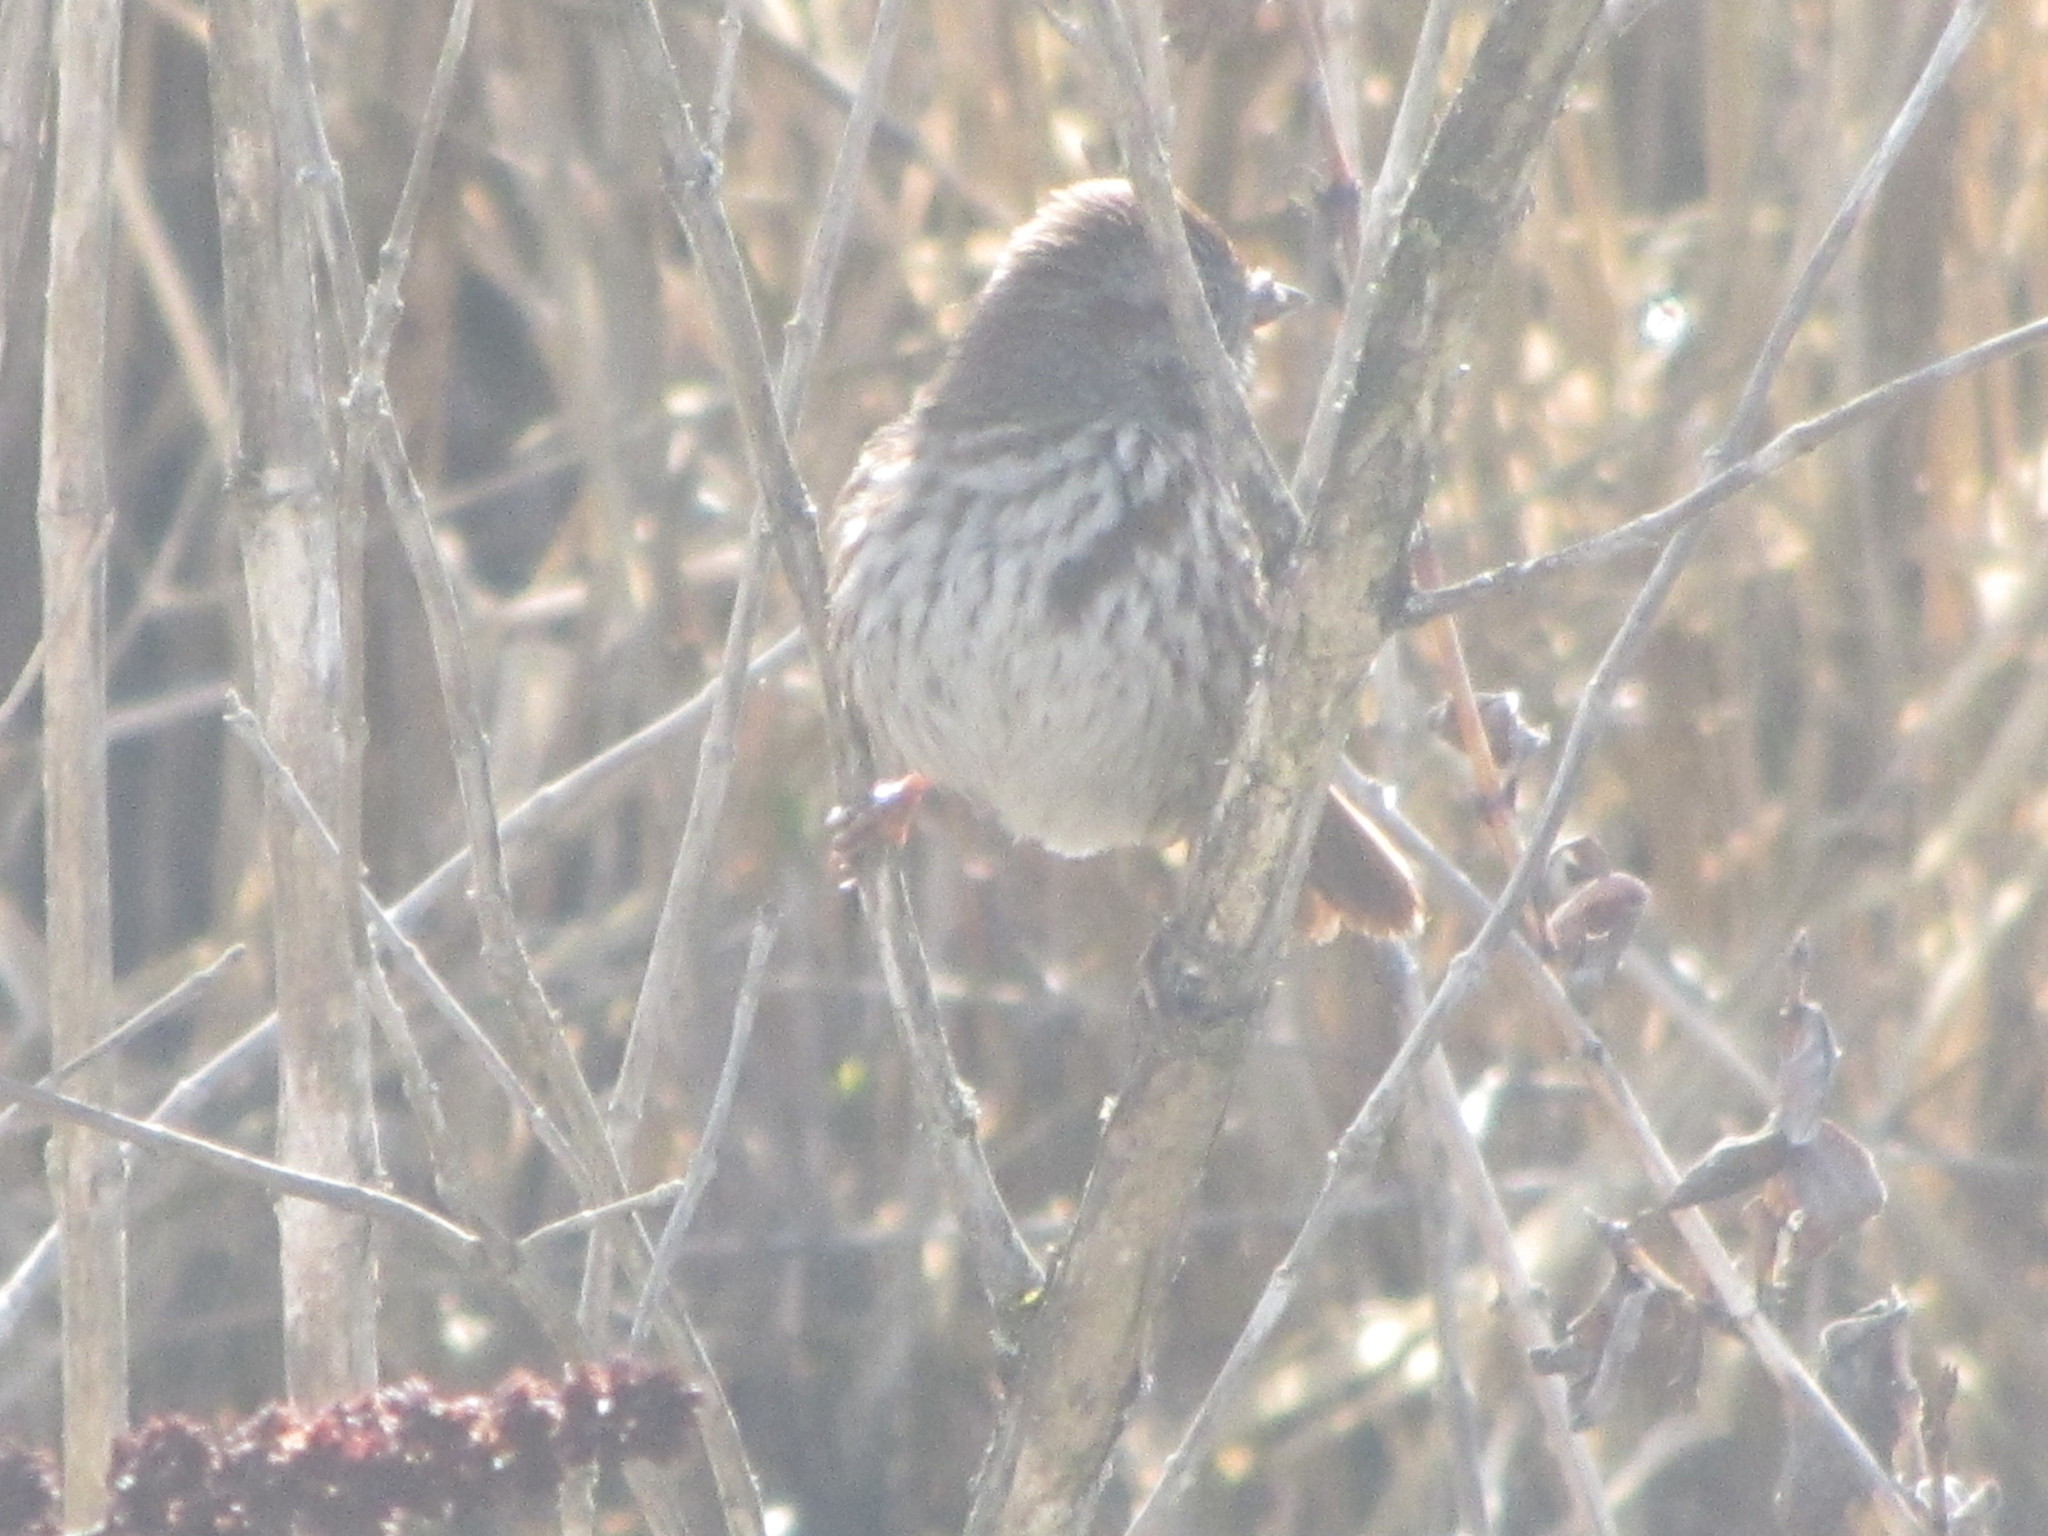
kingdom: Animalia
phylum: Chordata
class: Aves
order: Passeriformes
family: Passerellidae
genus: Melospiza
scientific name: Melospiza melodia
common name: Song sparrow
